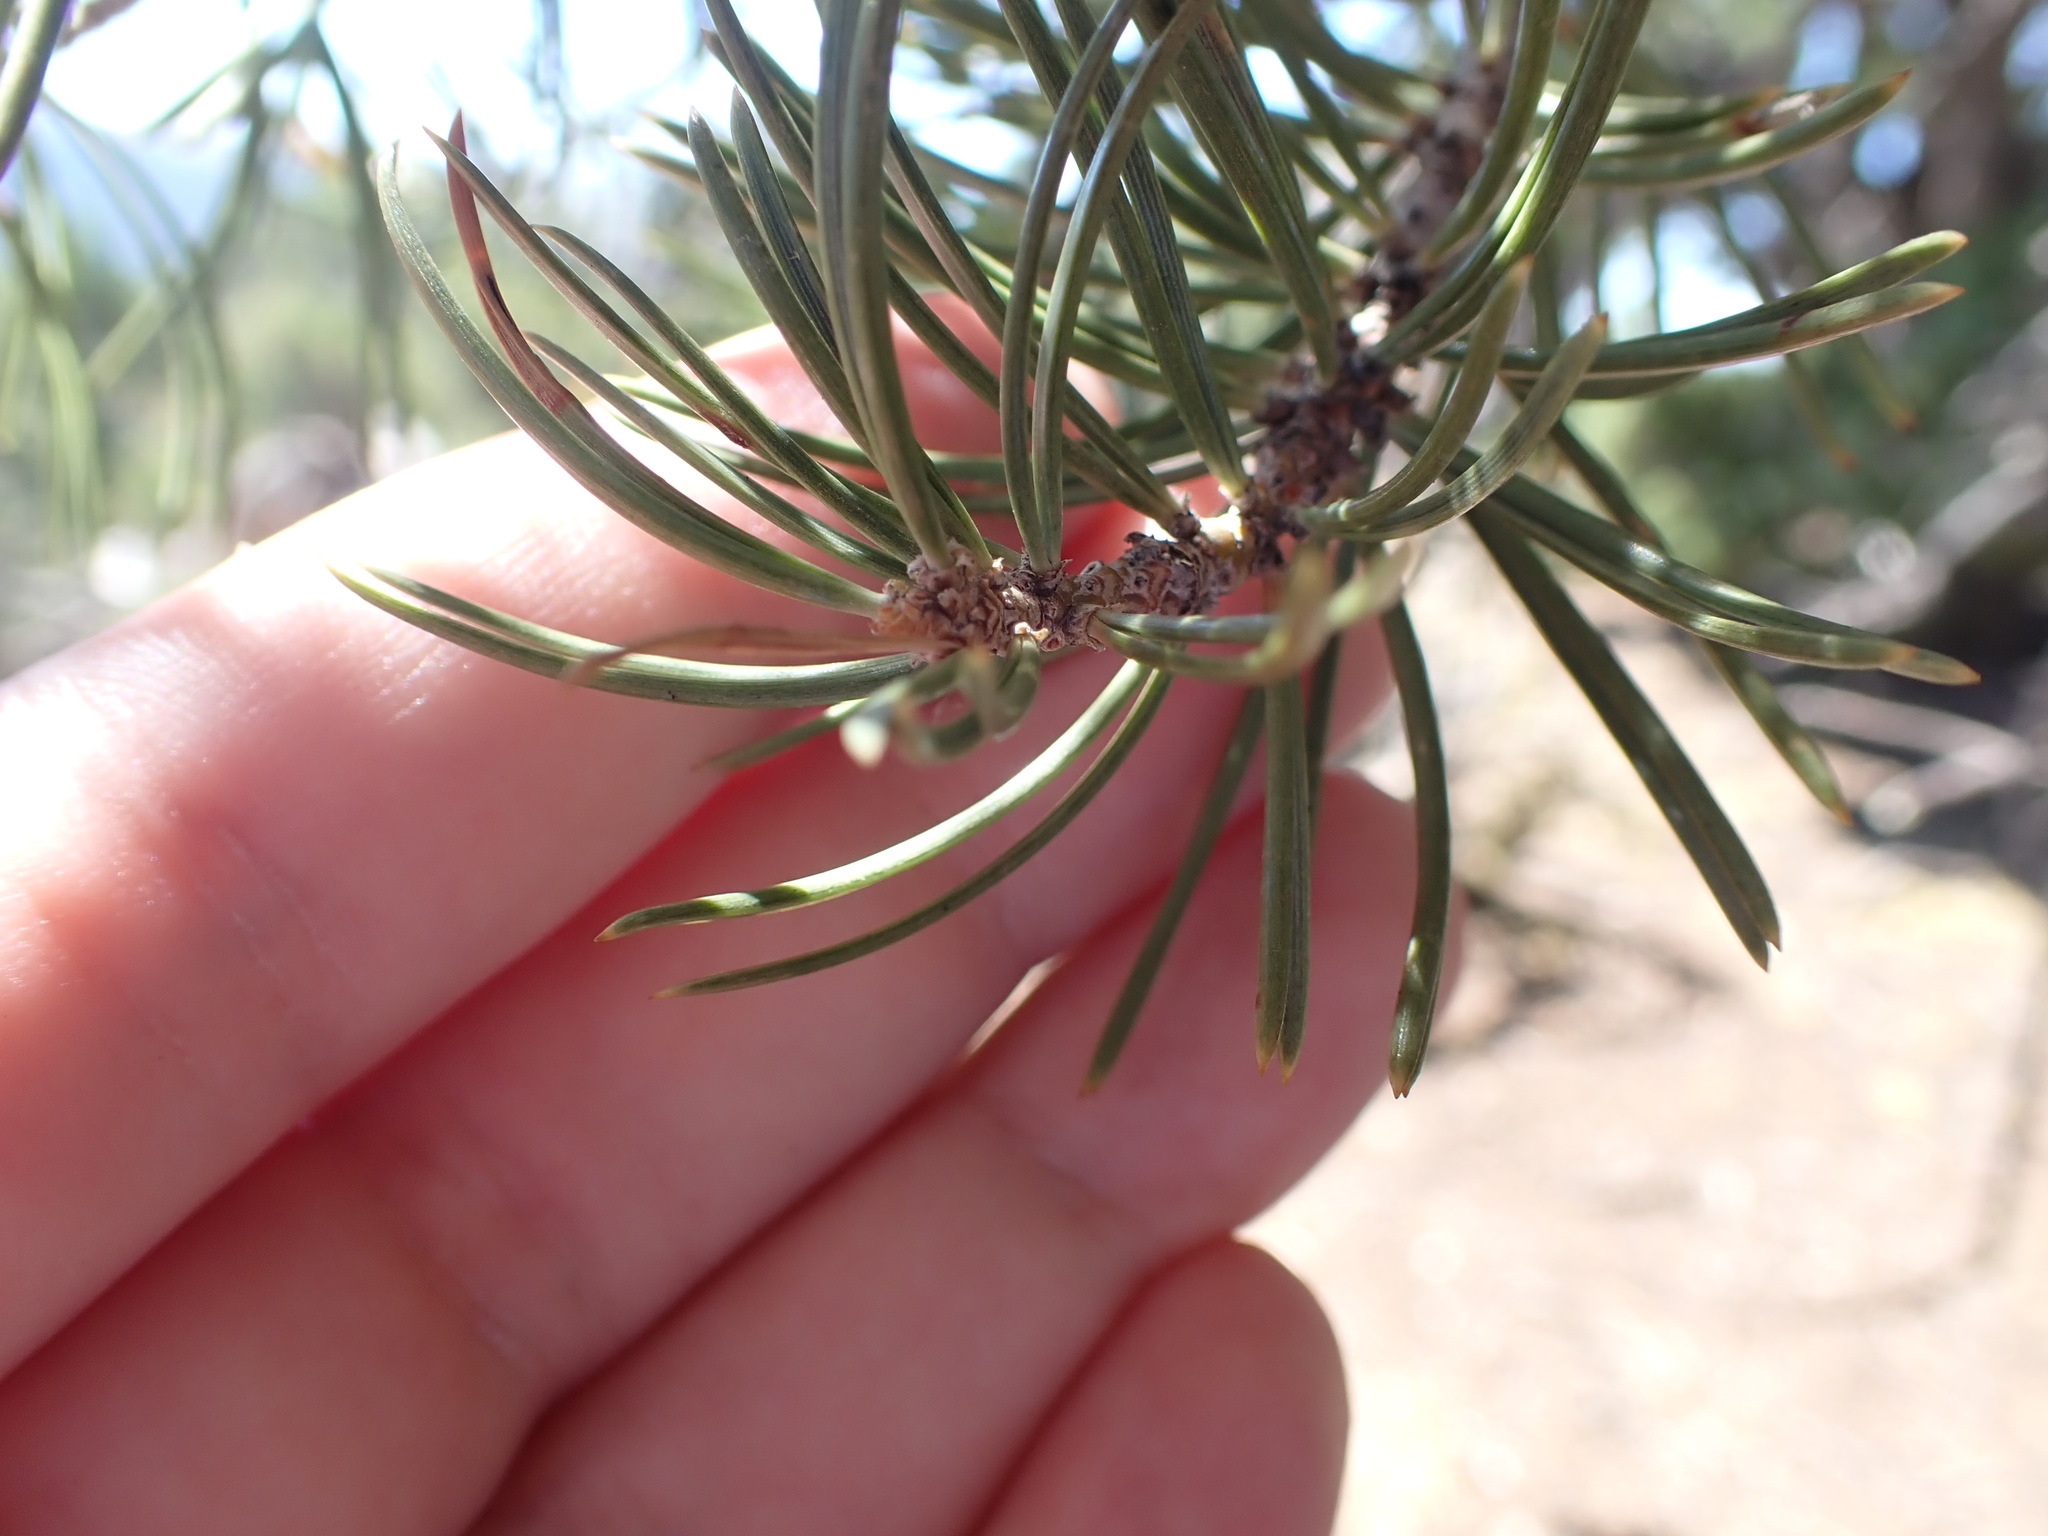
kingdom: Plantae
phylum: Tracheophyta
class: Pinopsida
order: Pinales
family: Pinaceae
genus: Pinus
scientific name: Pinus edulis
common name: Colorado pinyon
